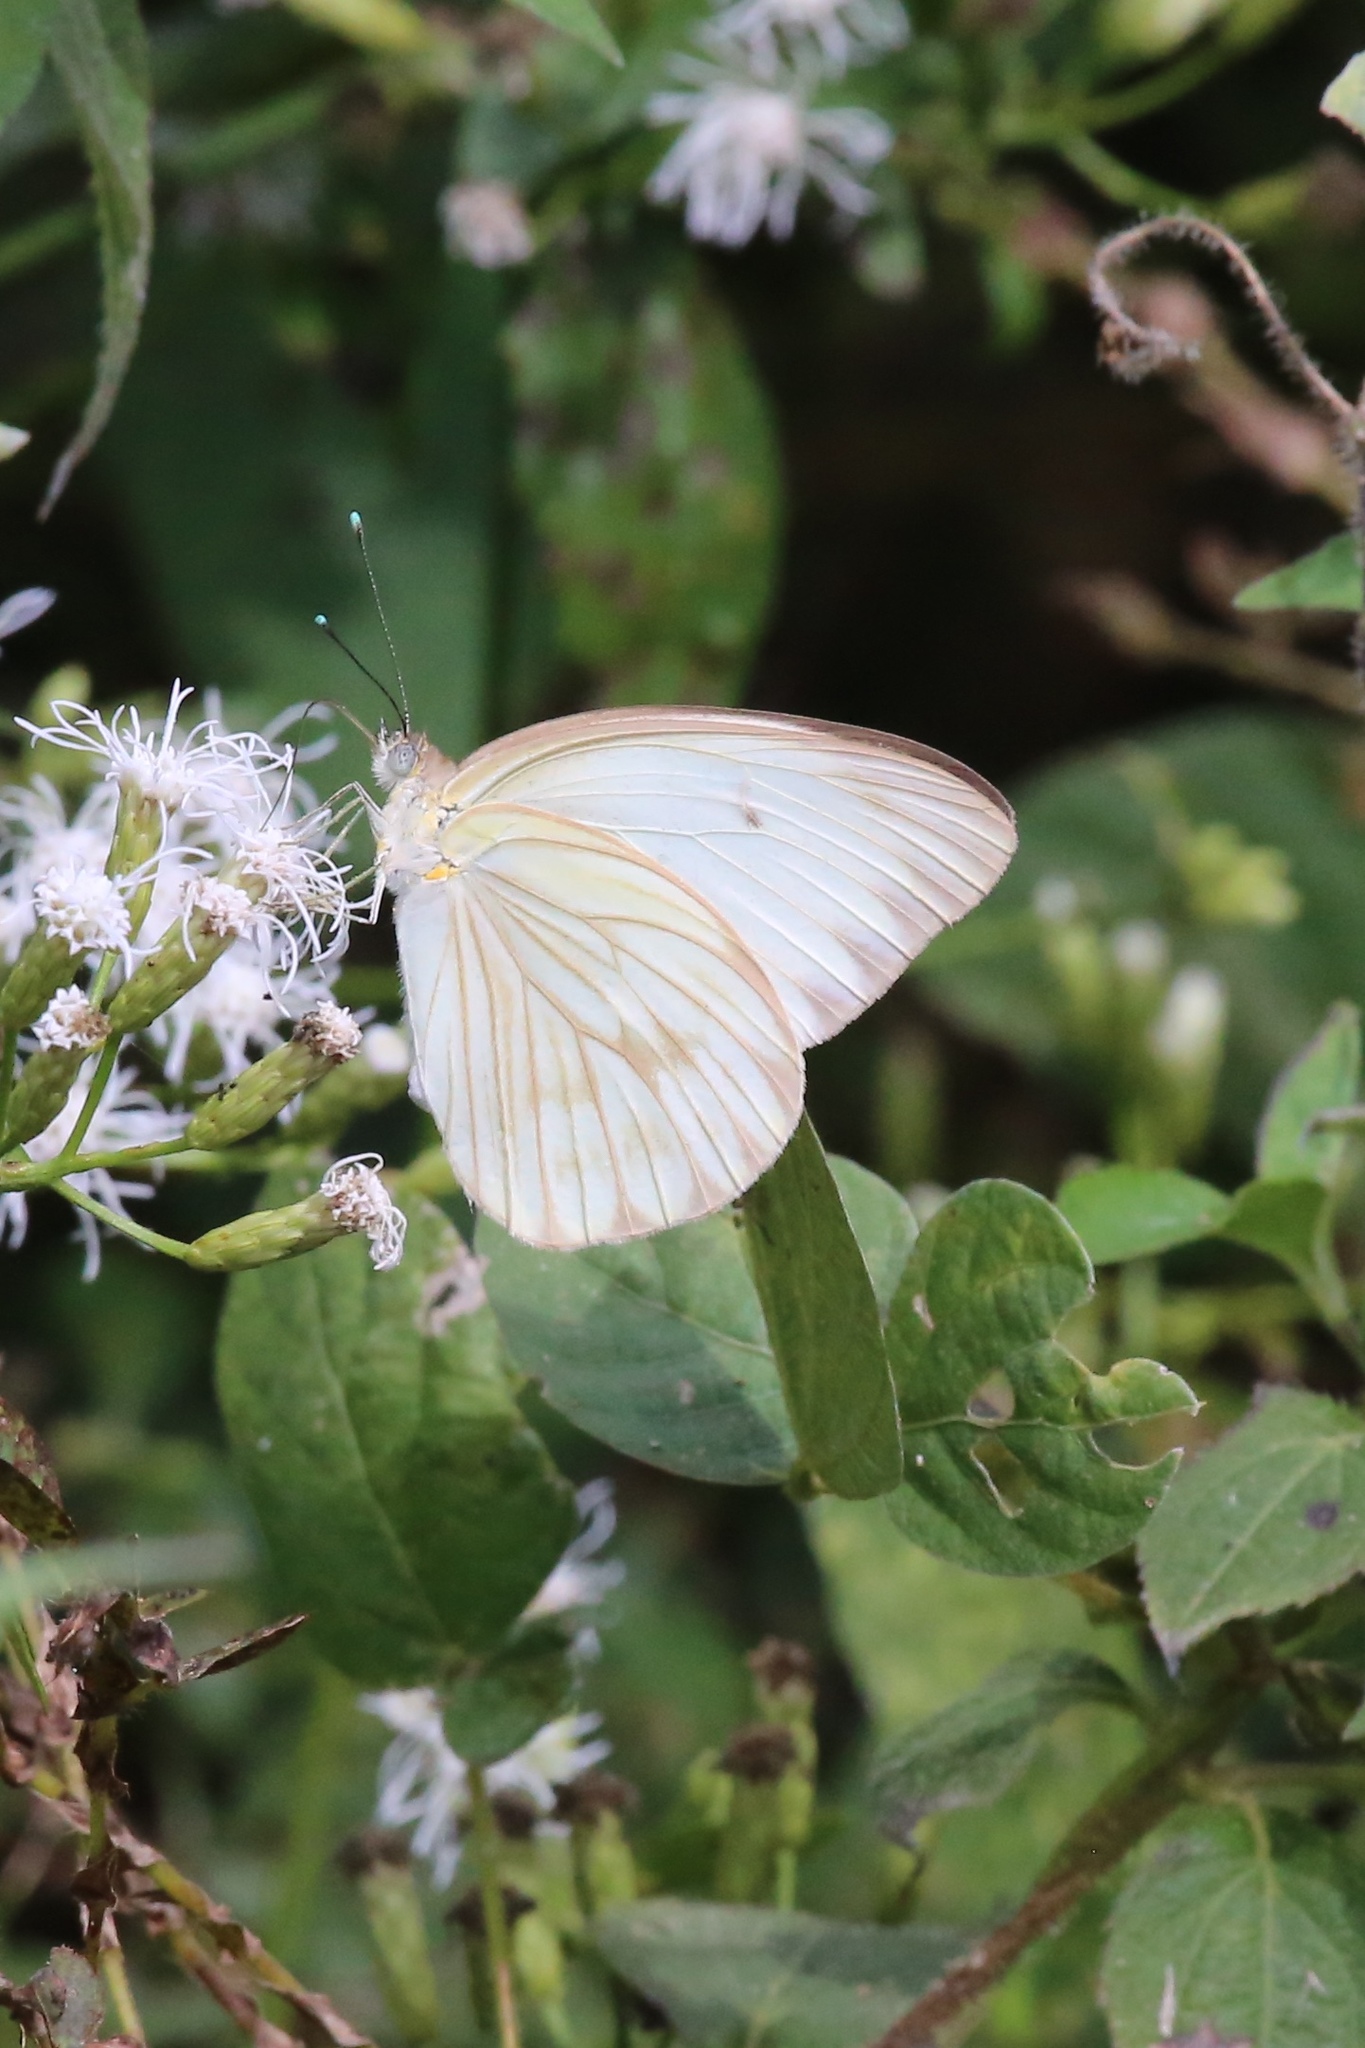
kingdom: Animalia
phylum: Arthropoda
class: Insecta
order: Lepidoptera
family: Pieridae
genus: Ascia
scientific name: Ascia monuste
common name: Great southern white
